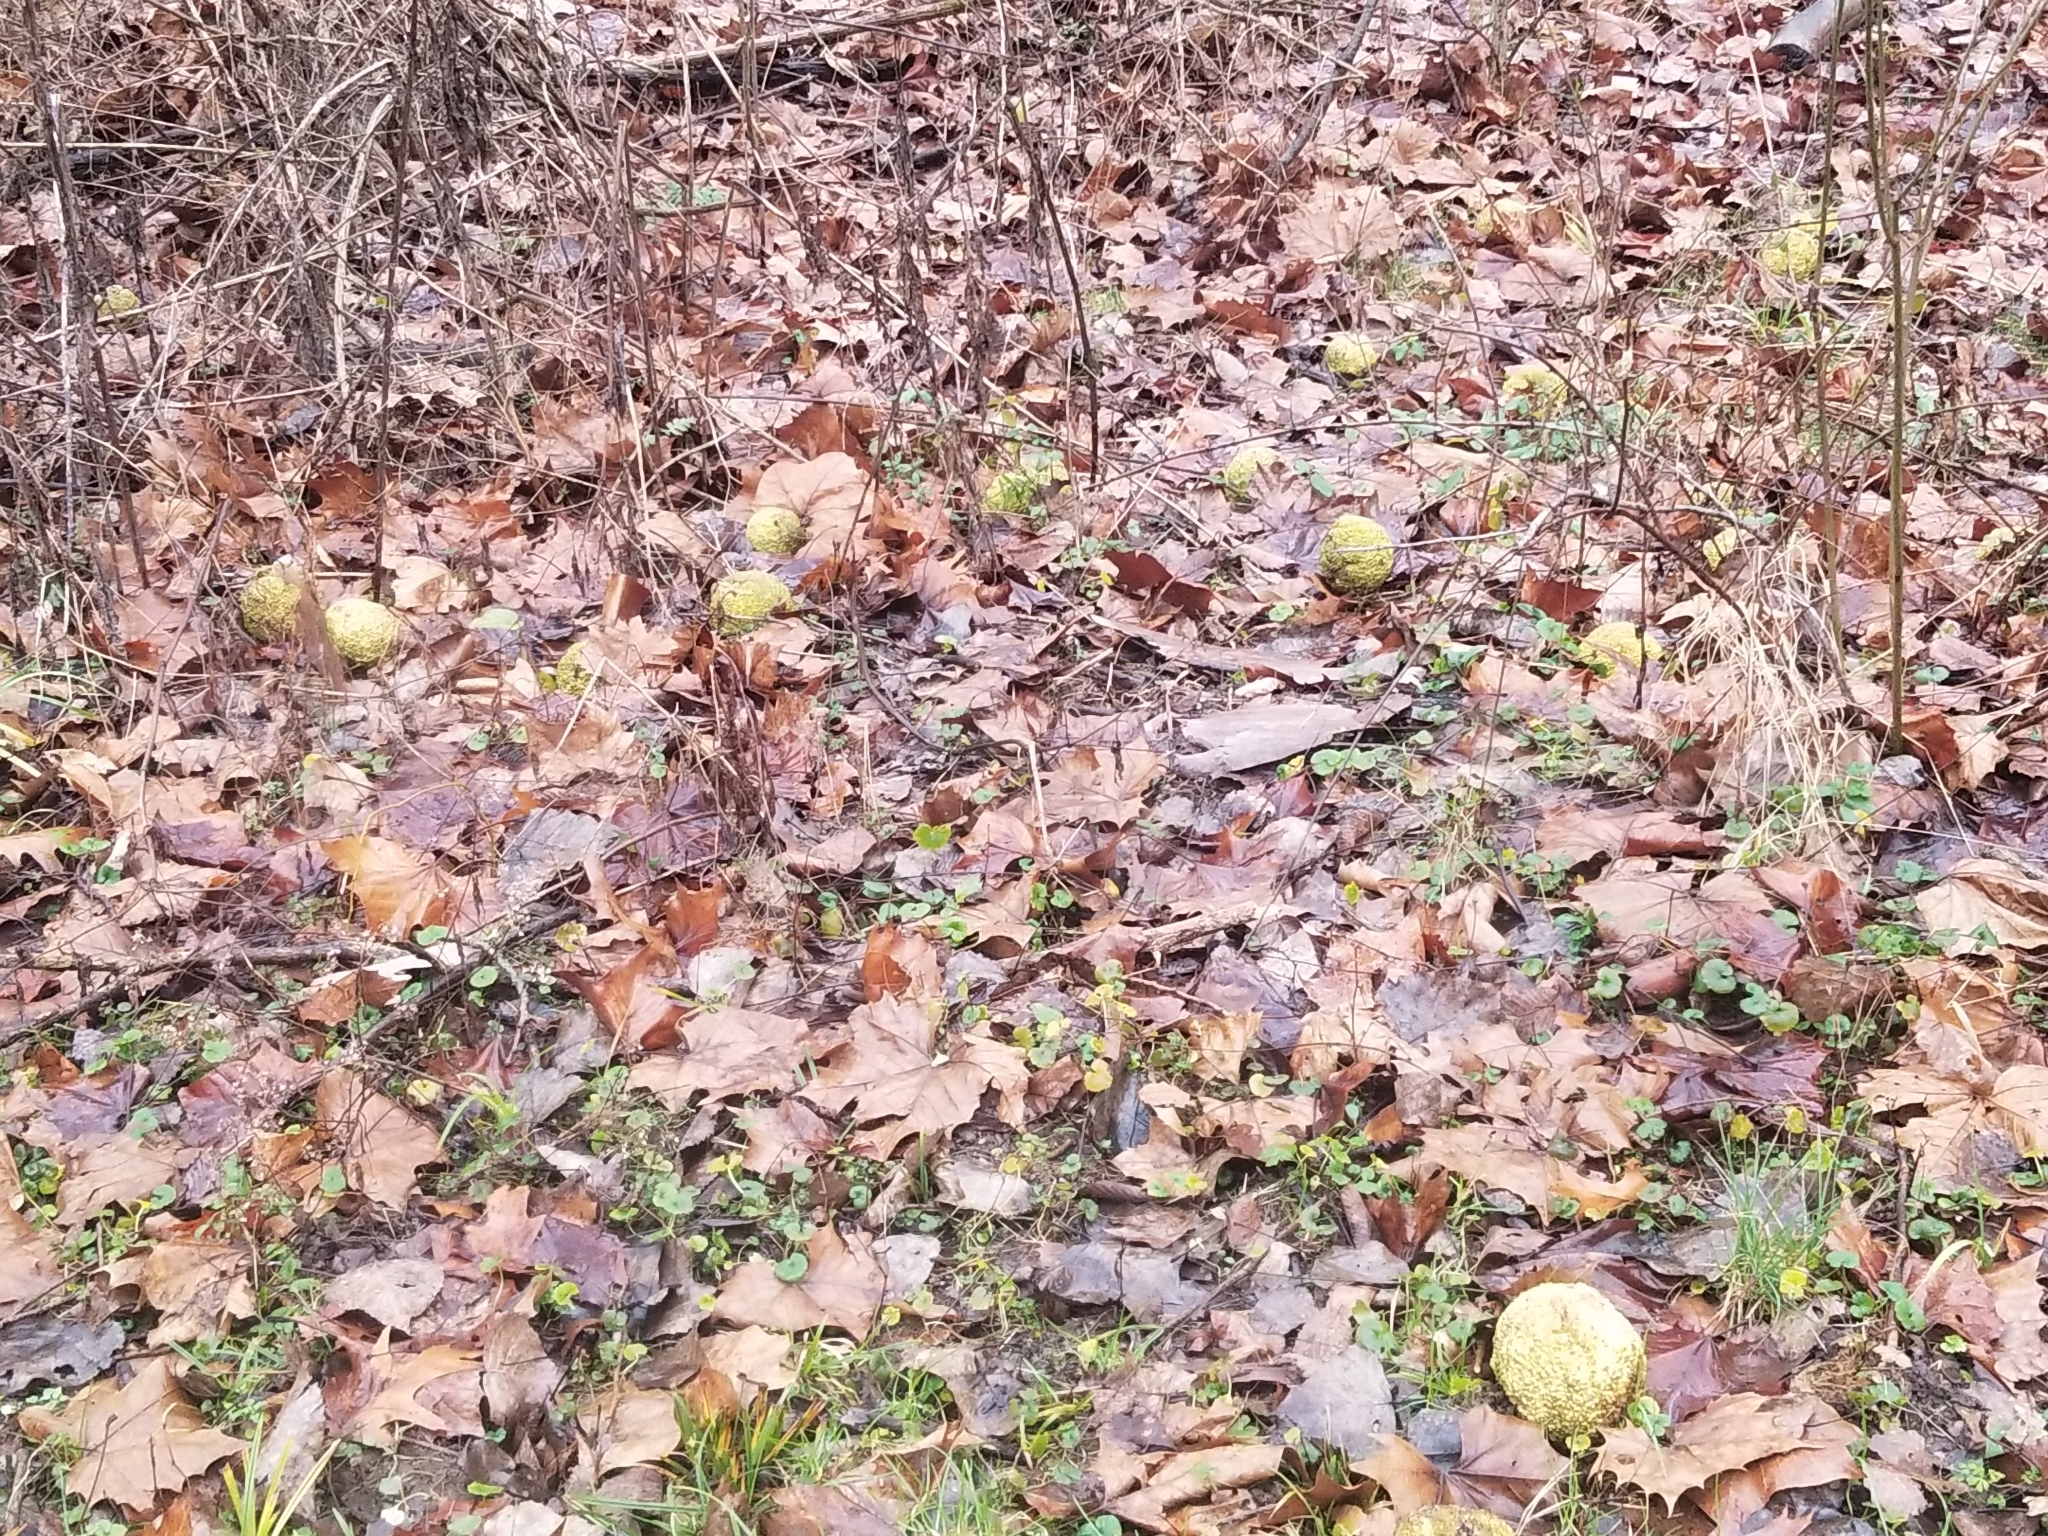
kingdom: Plantae
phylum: Tracheophyta
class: Magnoliopsida
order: Rosales
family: Moraceae
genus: Maclura
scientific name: Maclura pomifera
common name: Osage-orange
